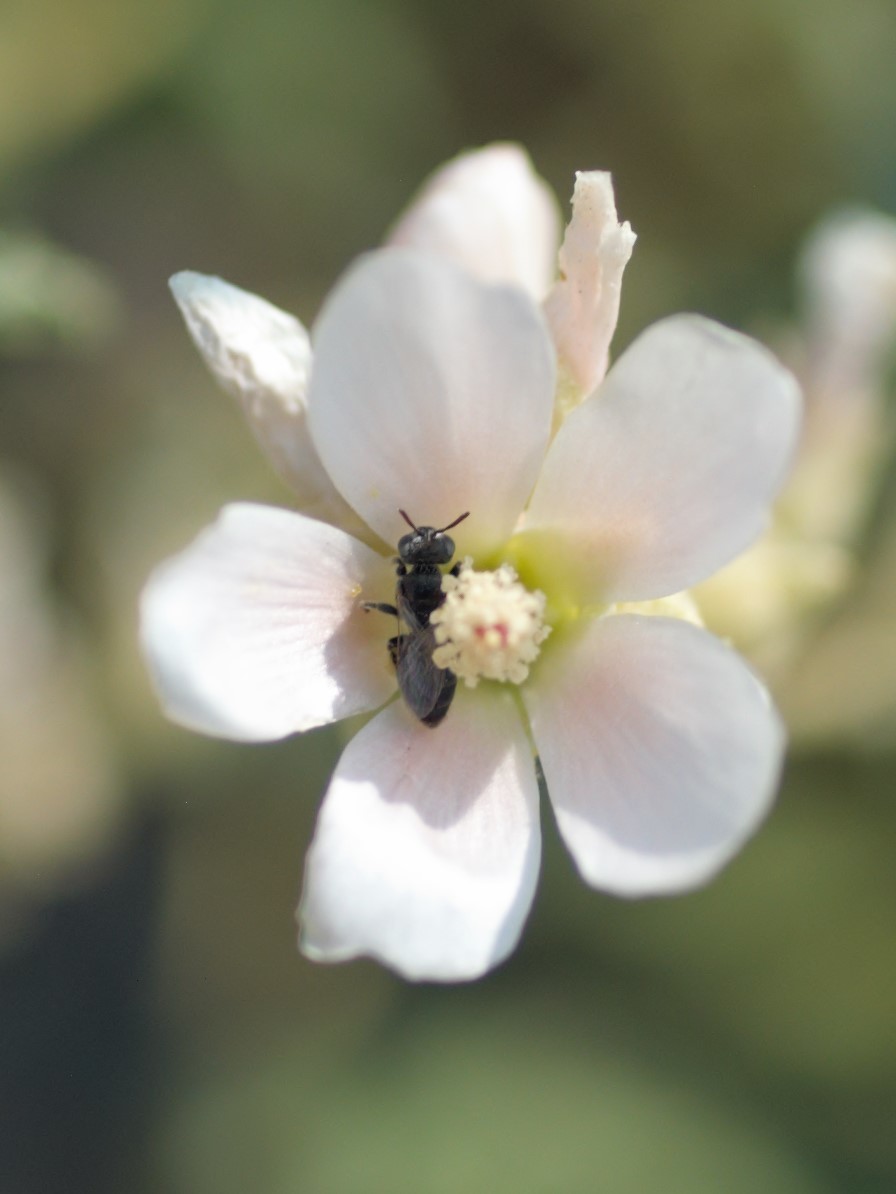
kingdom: Animalia
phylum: Arthropoda
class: Insecta
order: Hymenoptera
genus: Macroteropsis
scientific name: Macroteropsis
